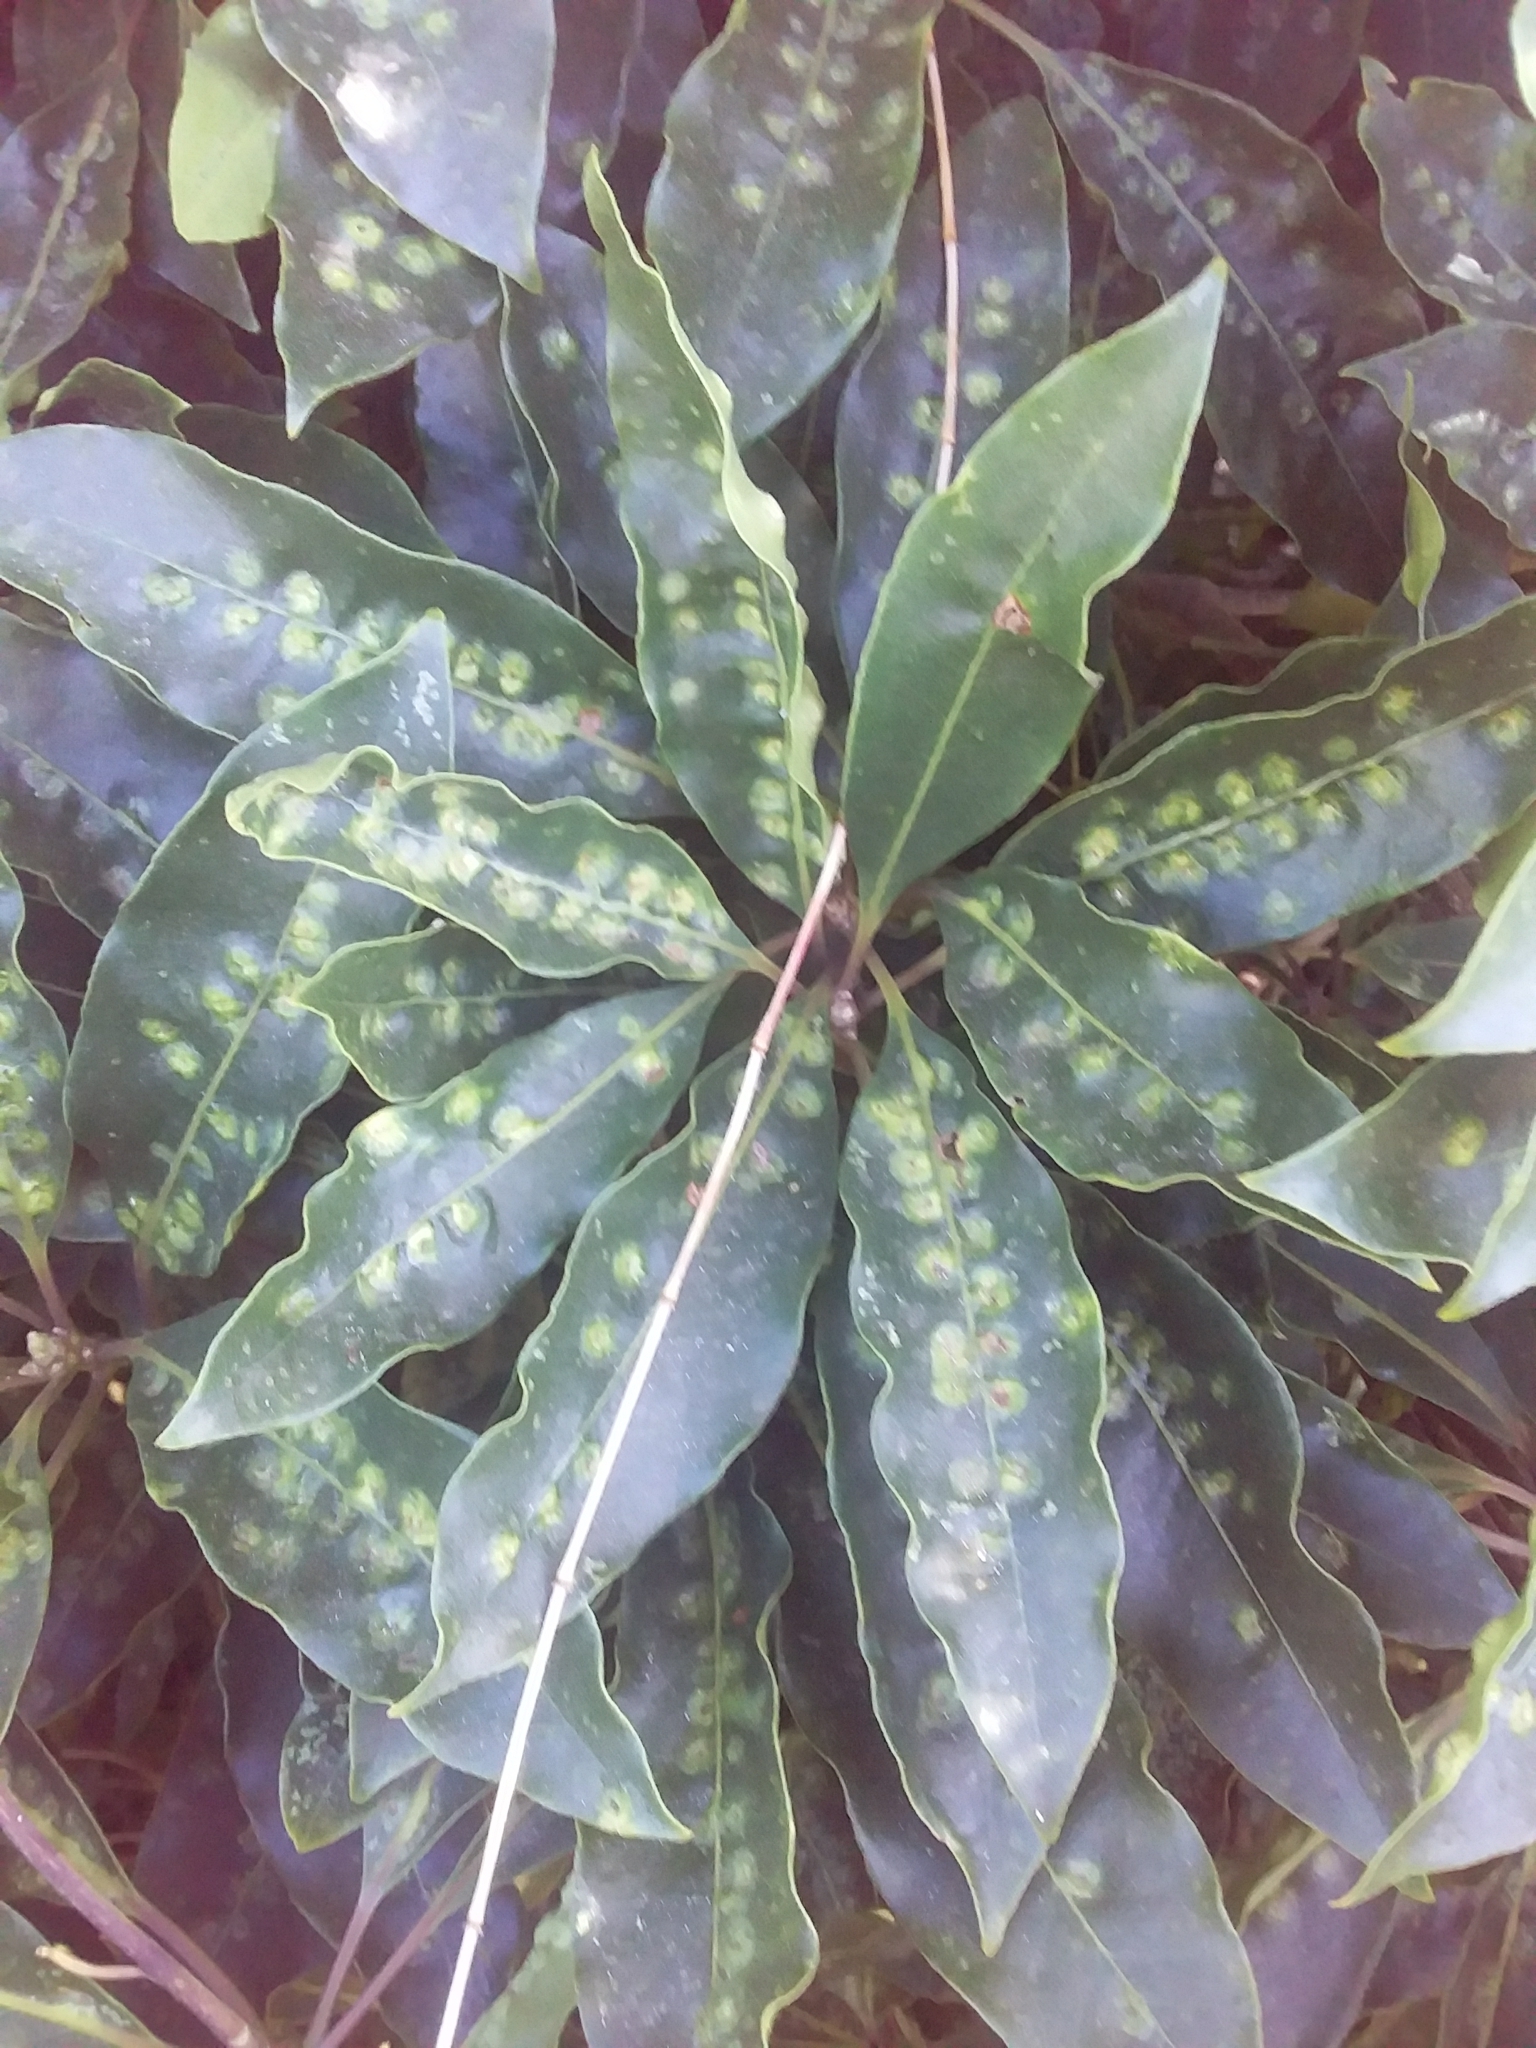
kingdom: Plantae
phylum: Tracheophyta
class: Magnoliopsida
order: Apiales
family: Pittosporaceae
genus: Pittosporum
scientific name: Pittosporum undulatum
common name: Australian cheesewood
